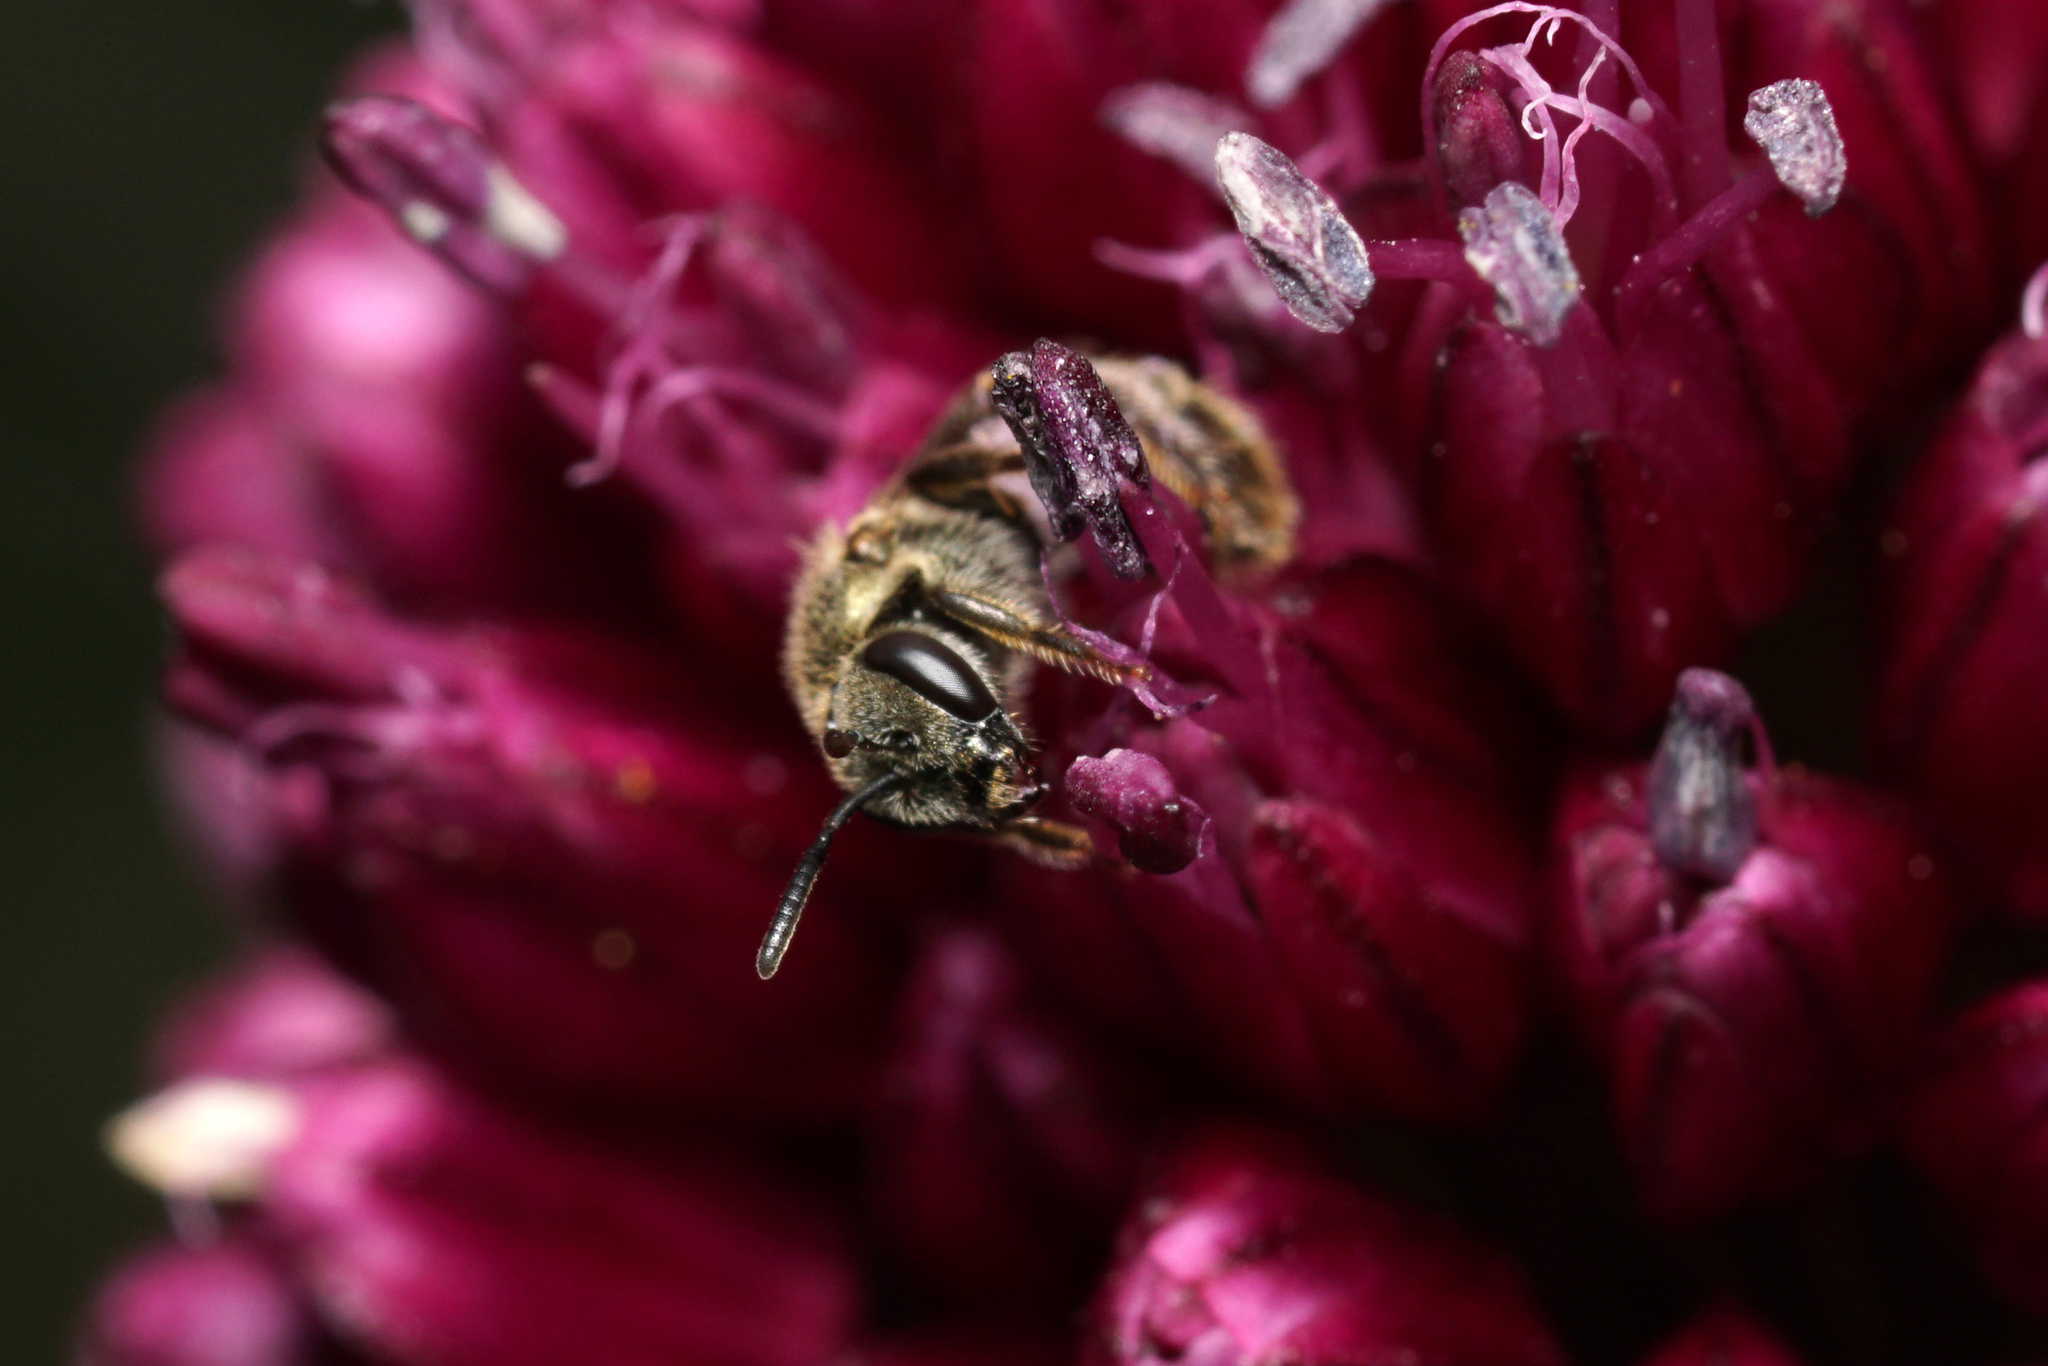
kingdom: Animalia
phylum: Arthropoda
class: Insecta
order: Hymenoptera
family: Halictidae
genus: Dialictus
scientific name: Dialictus
